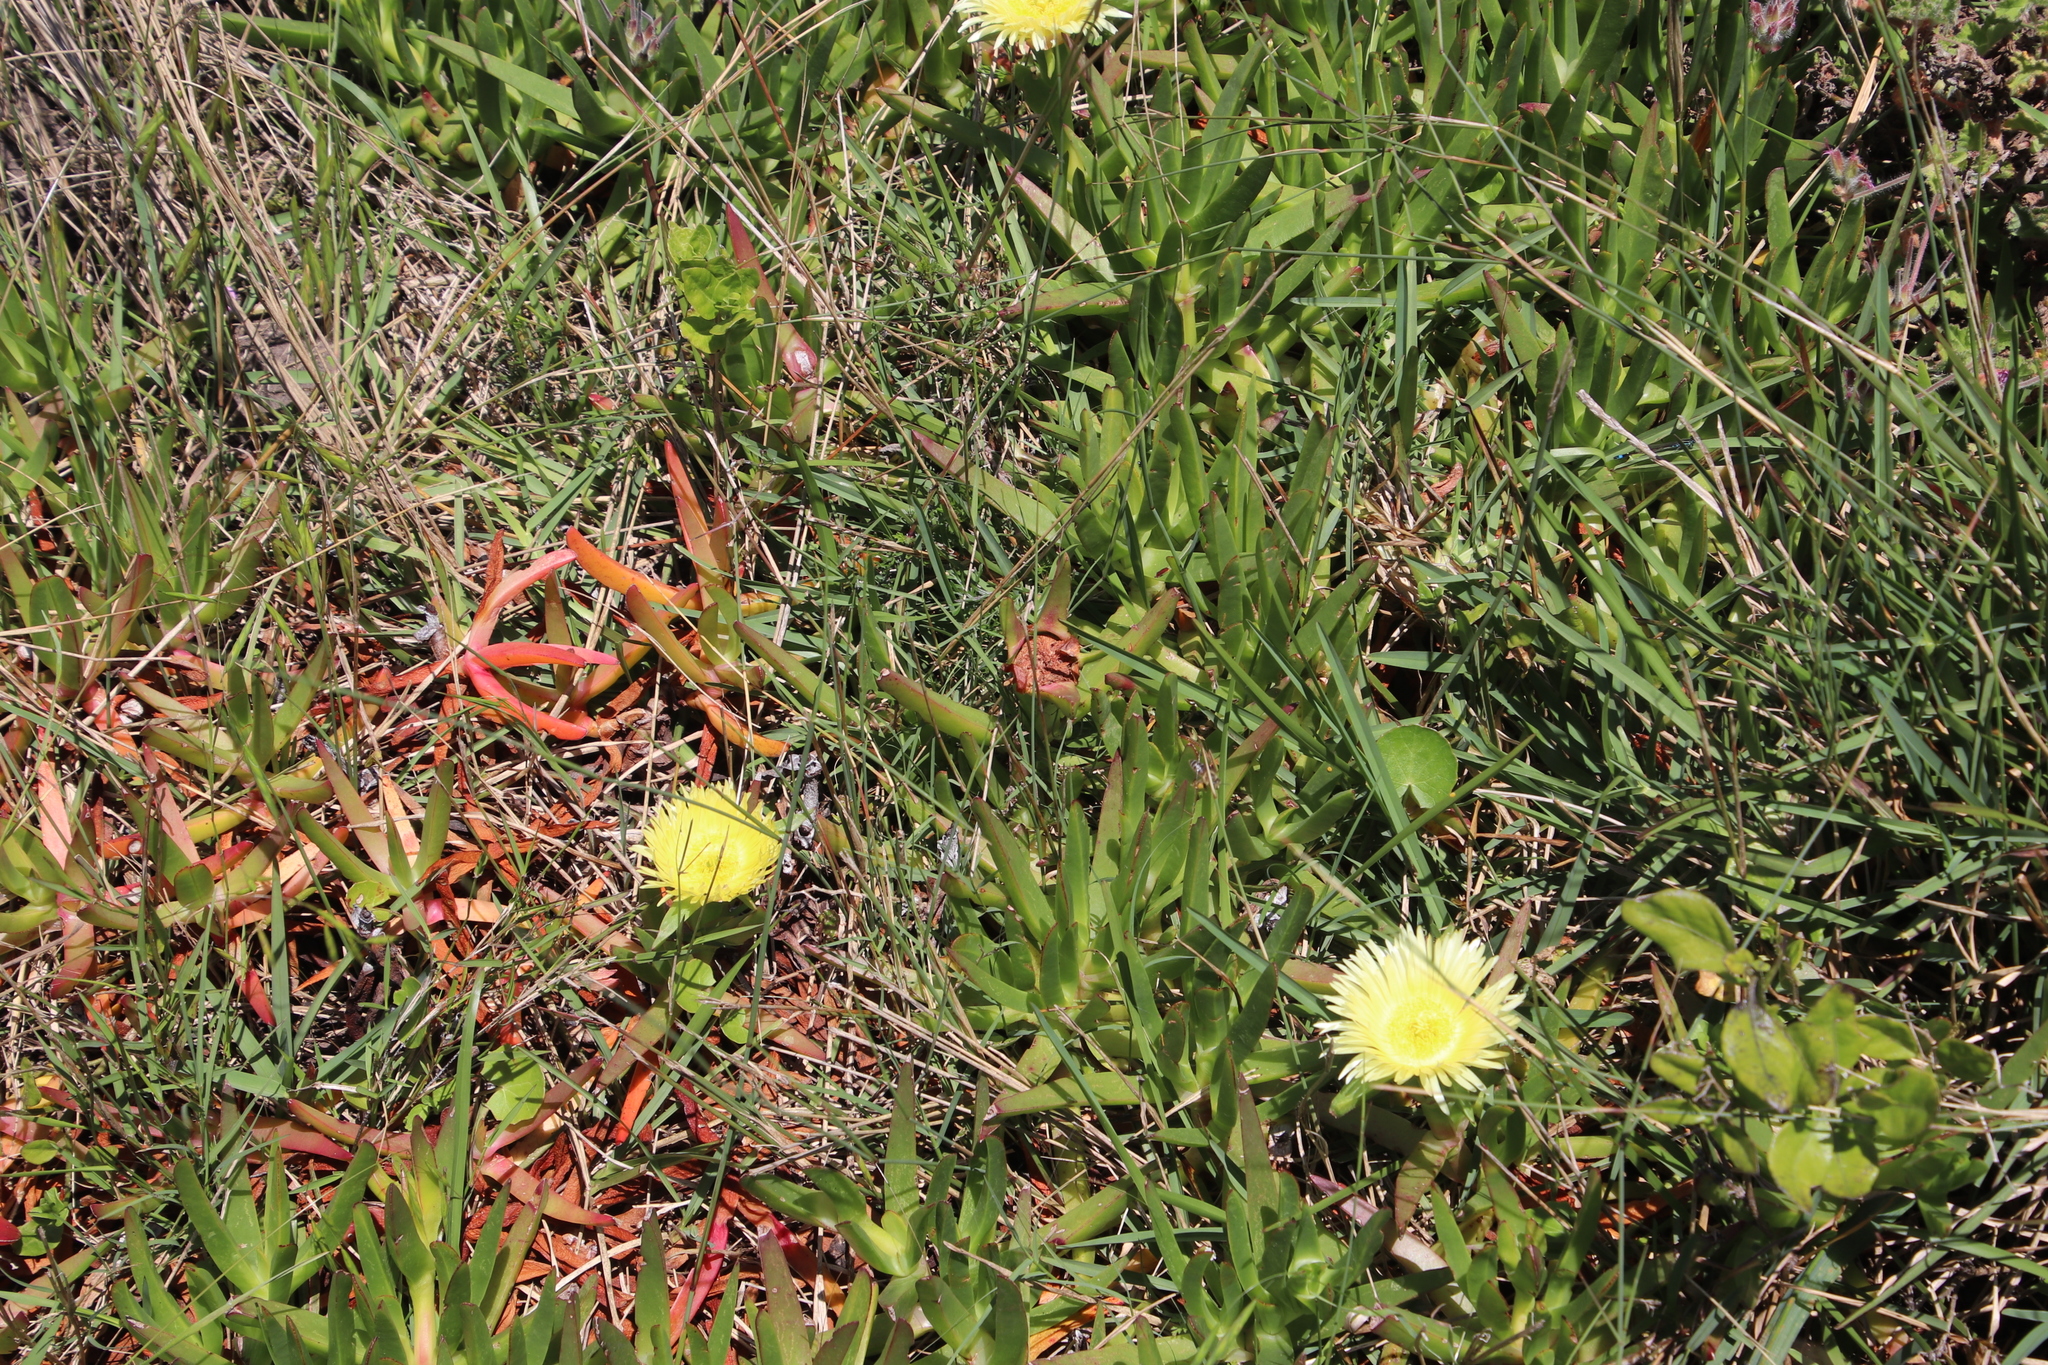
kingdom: Plantae
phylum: Tracheophyta
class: Magnoliopsida
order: Caryophyllales
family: Aizoaceae
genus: Carpobrotus
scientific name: Carpobrotus edulis
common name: Hottentot-fig
